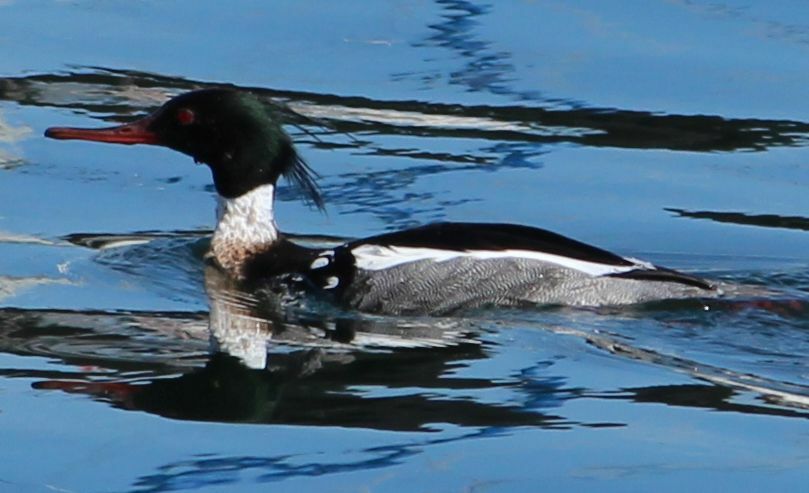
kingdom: Animalia
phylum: Chordata
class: Aves
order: Anseriformes
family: Anatidae
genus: Mergus
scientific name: Mergus serrator
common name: Red-breasted merganser
